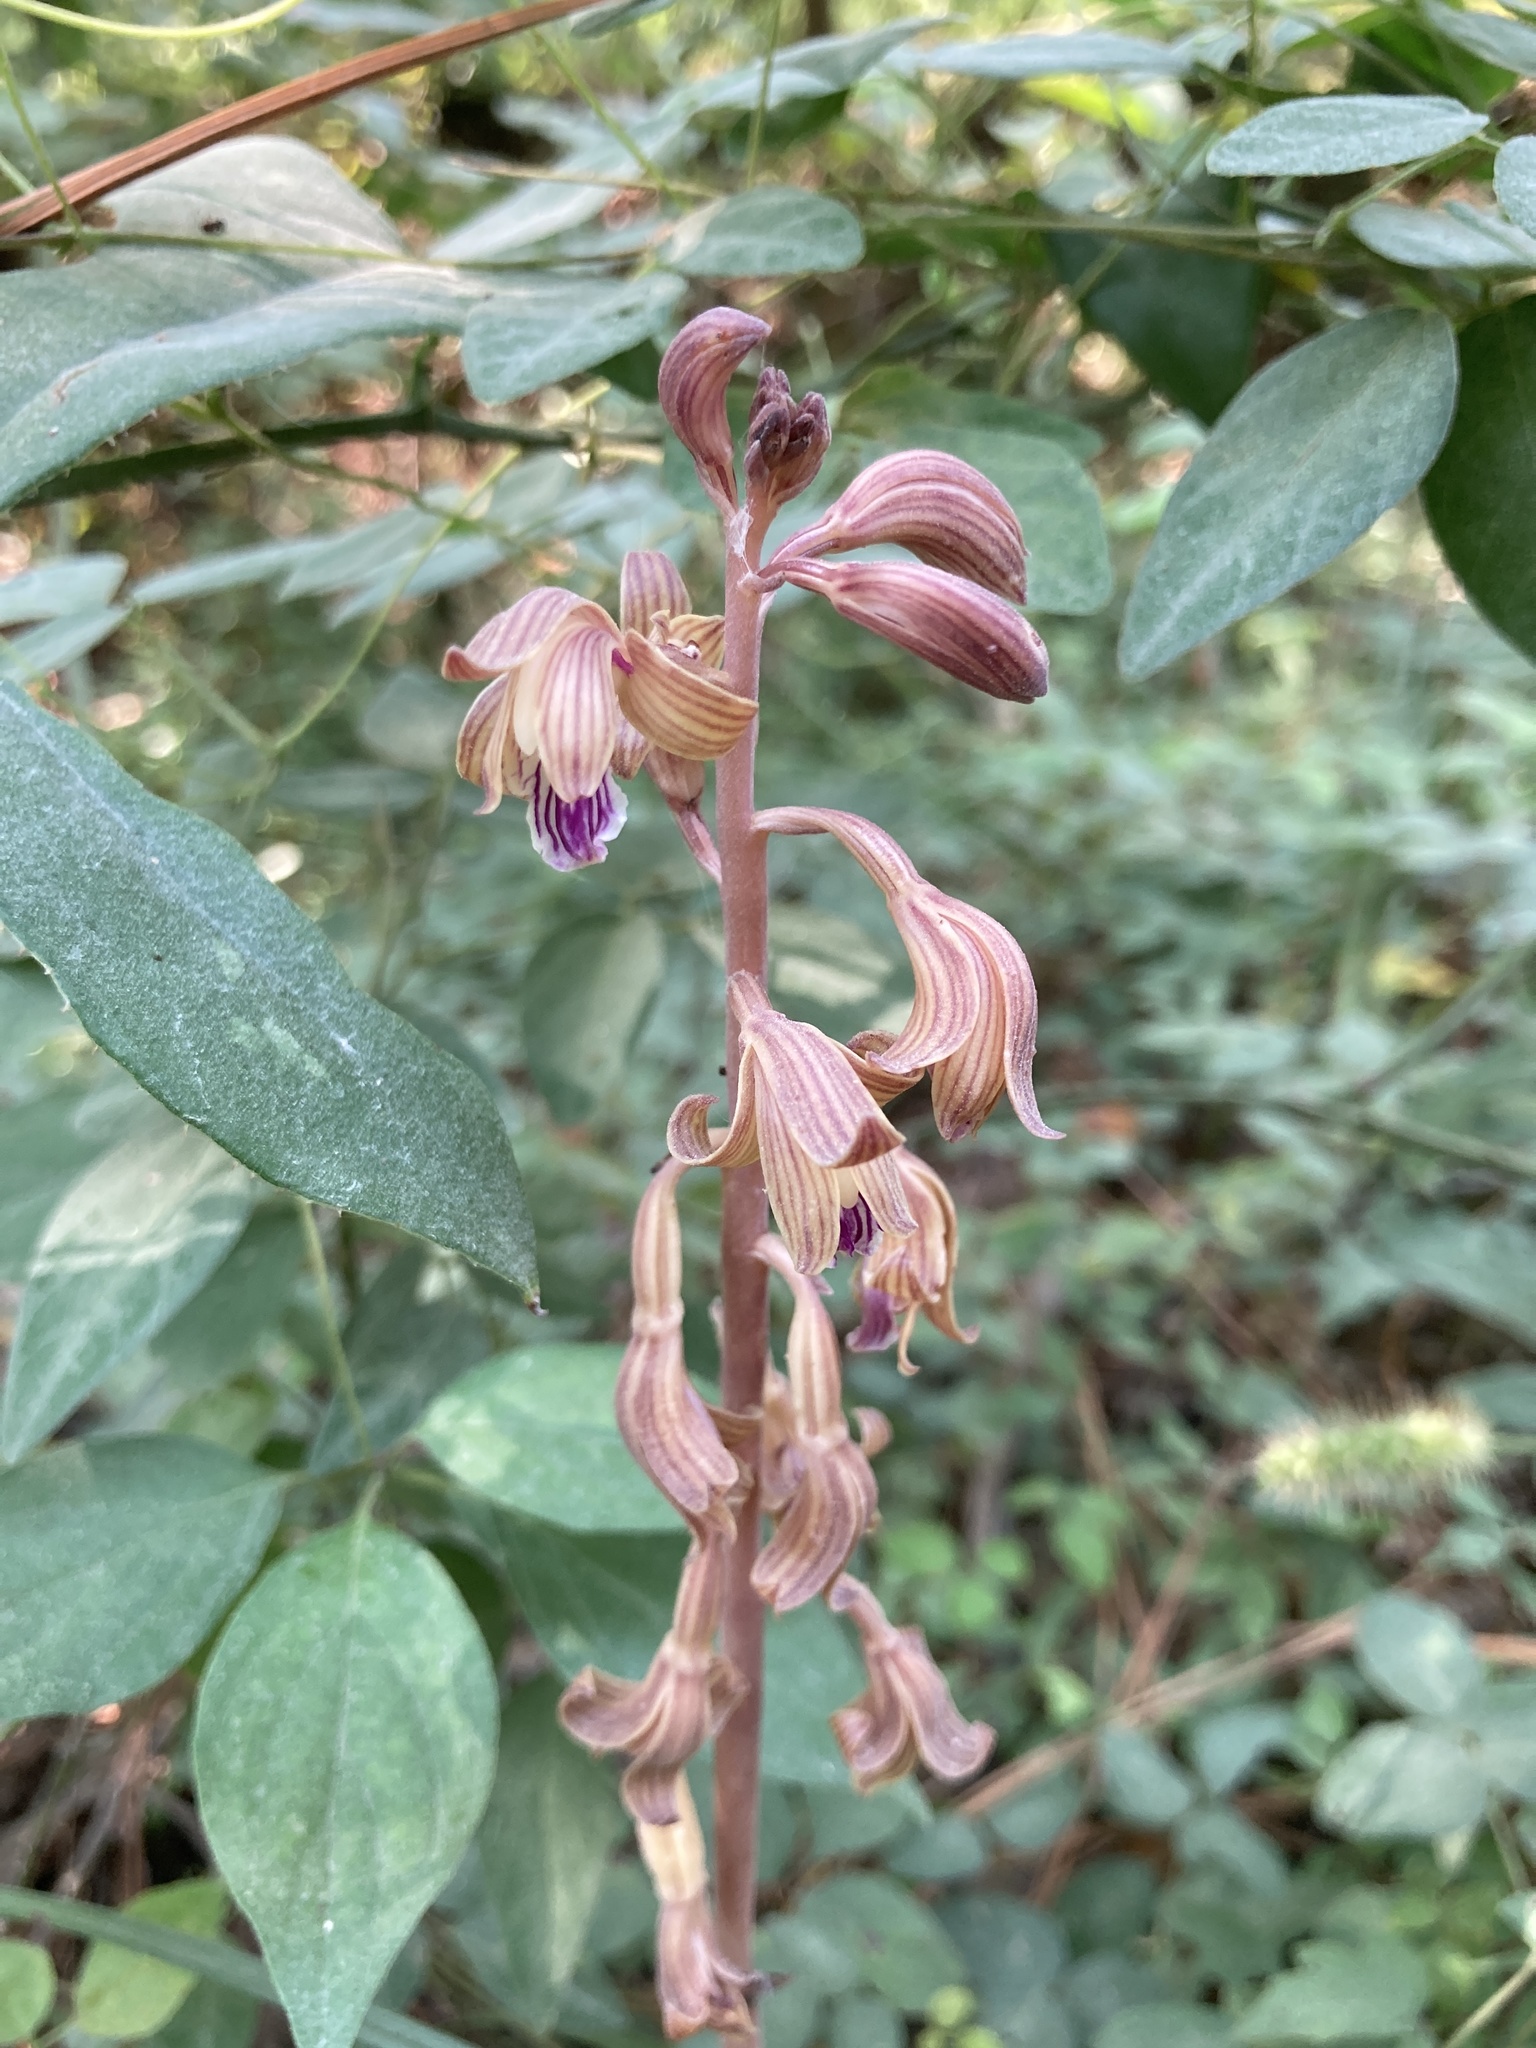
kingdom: Plantae
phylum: Tracheophyta
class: Liliopsida
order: Asparagales
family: Orchidaceae
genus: Bletia
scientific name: Bletia spicata
